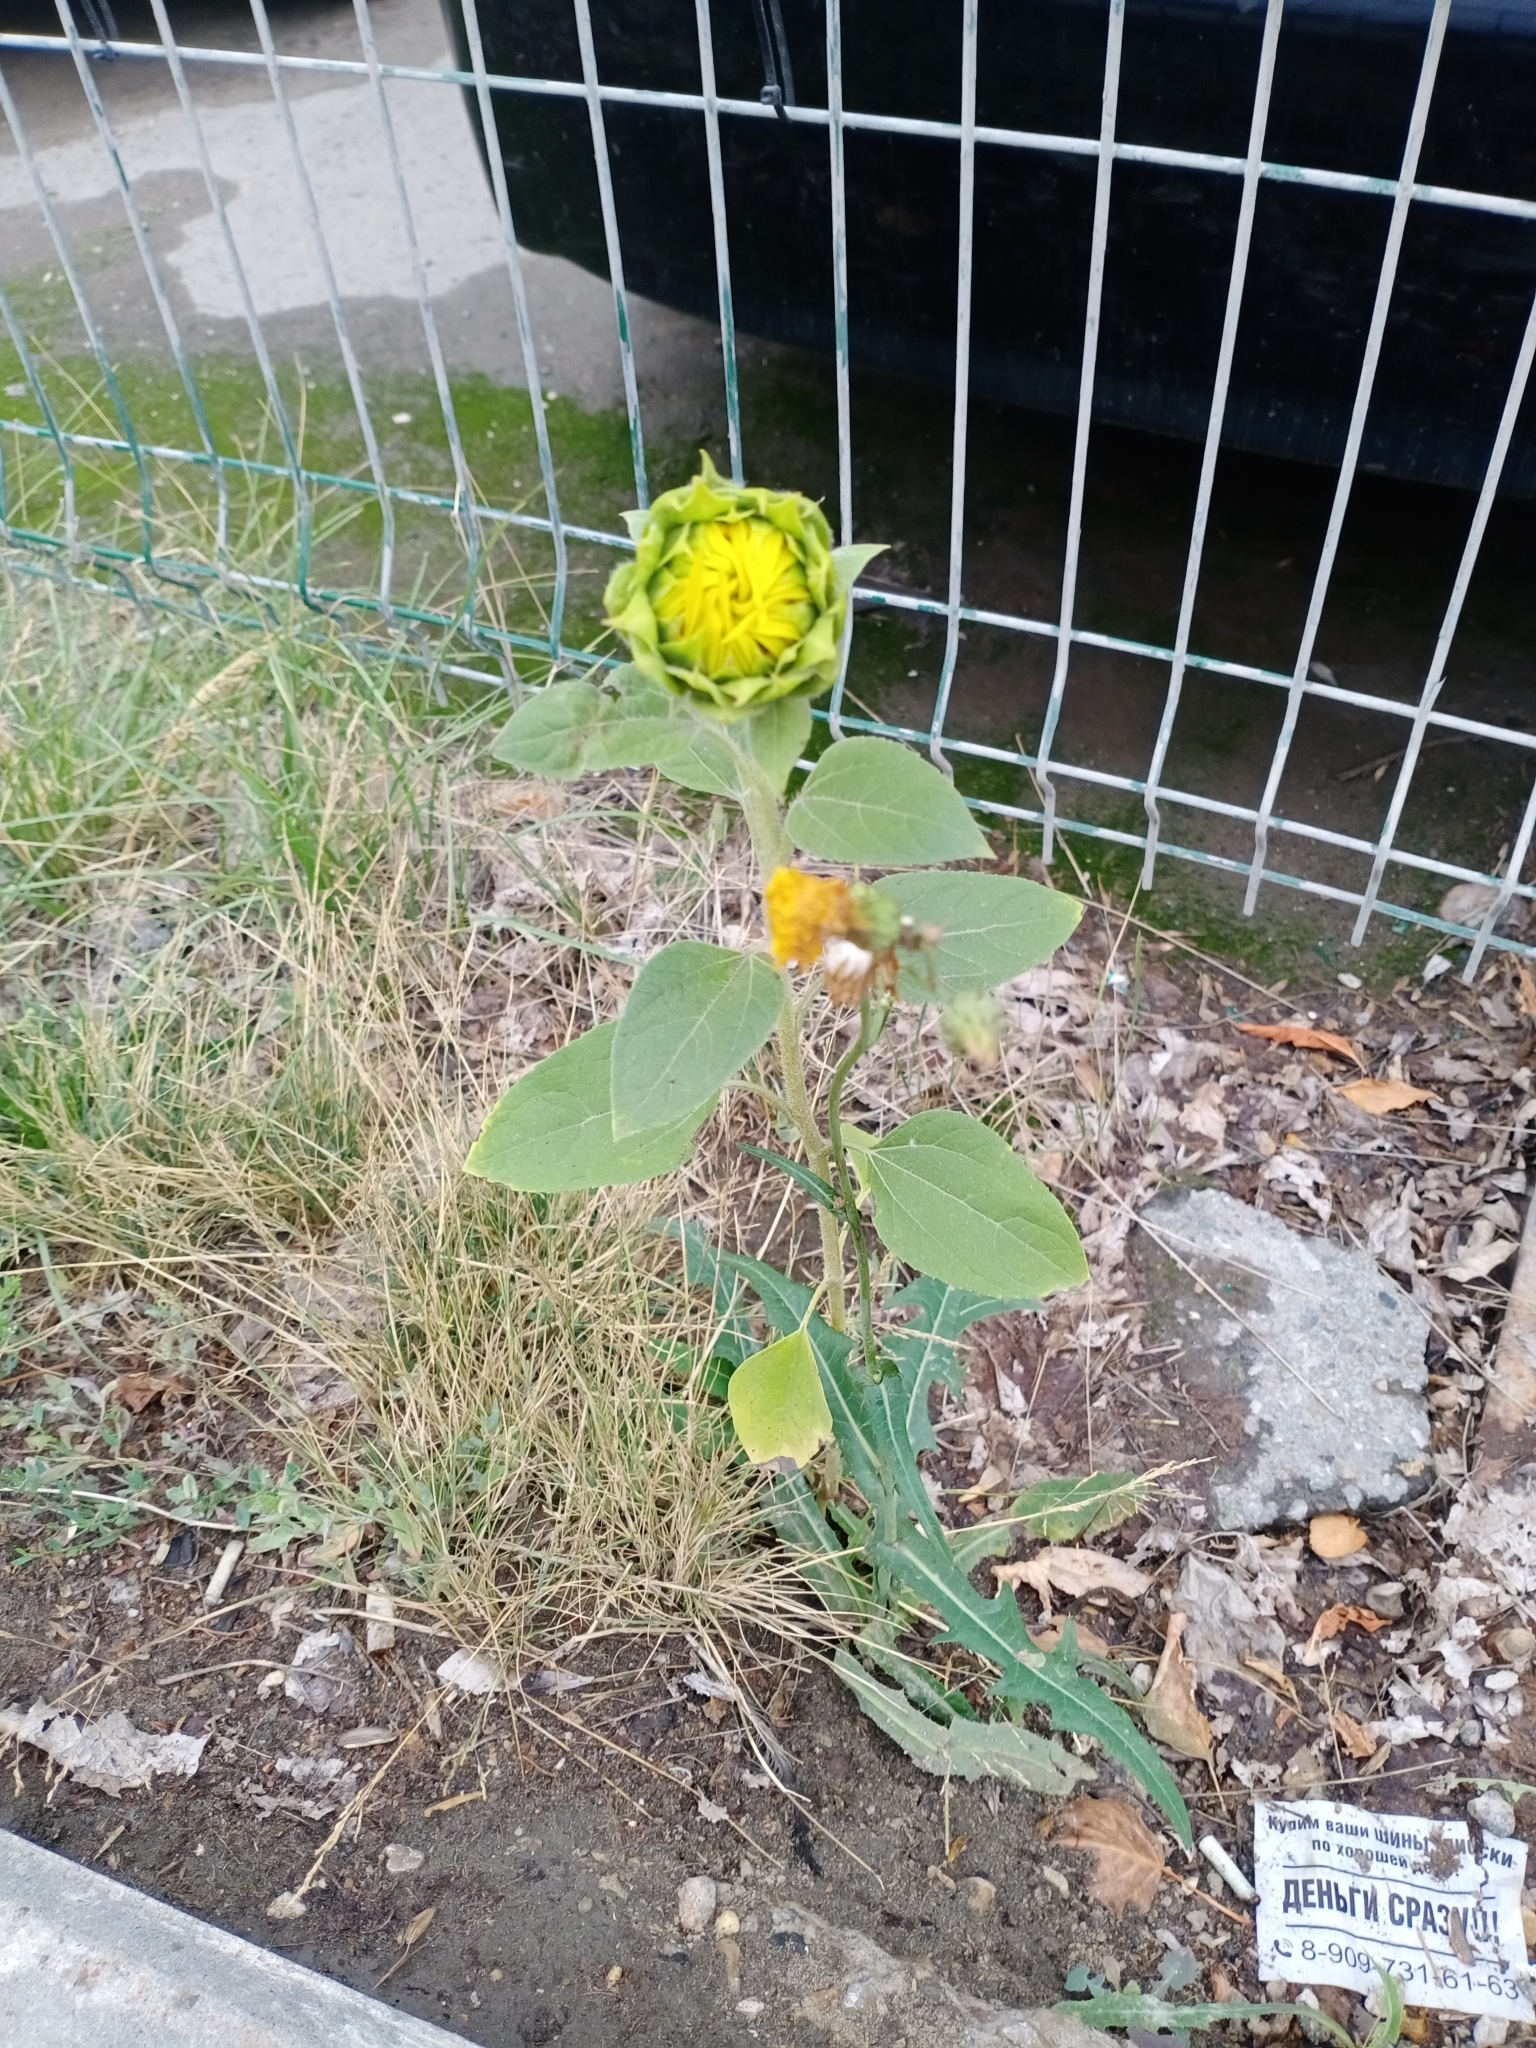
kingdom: Plantae
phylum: Tracheophyta
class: Magnoliopsida
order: Asterales
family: Asteraceae
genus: Helianthus
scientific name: Helianthus annuus
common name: Sunflower
